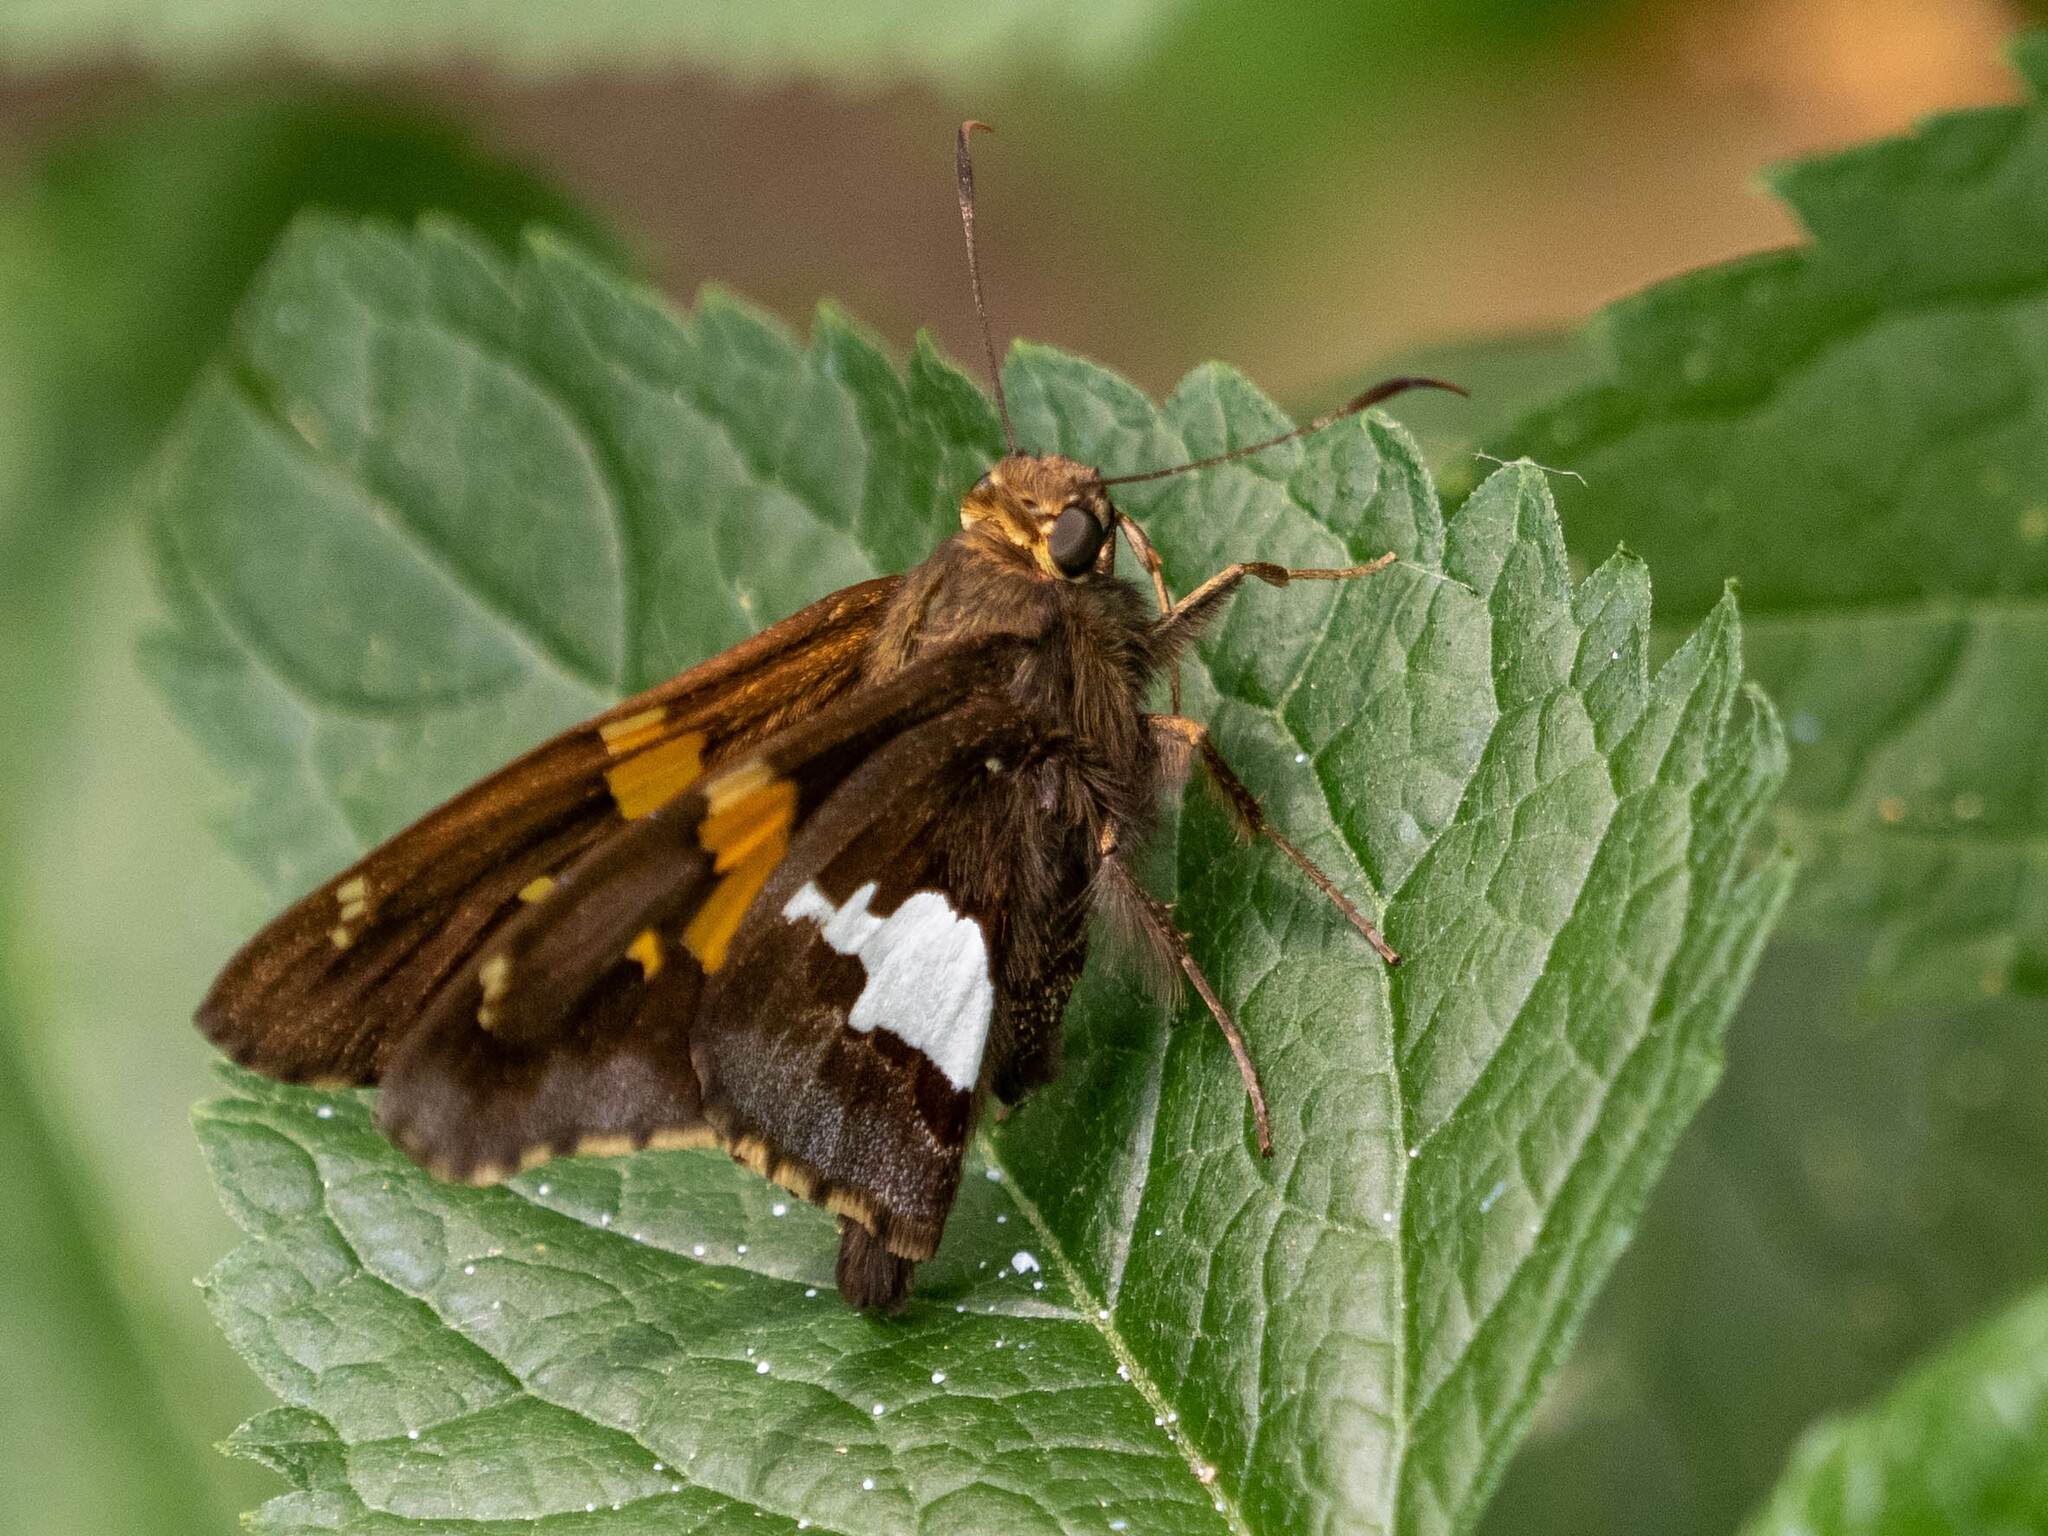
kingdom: Animalia
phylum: Arthropoda
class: Insecta
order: Lepidoptera
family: Hesperiidae
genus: Epargyreus
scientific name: Epargyreus clarus
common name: Silver-spotted skipper
